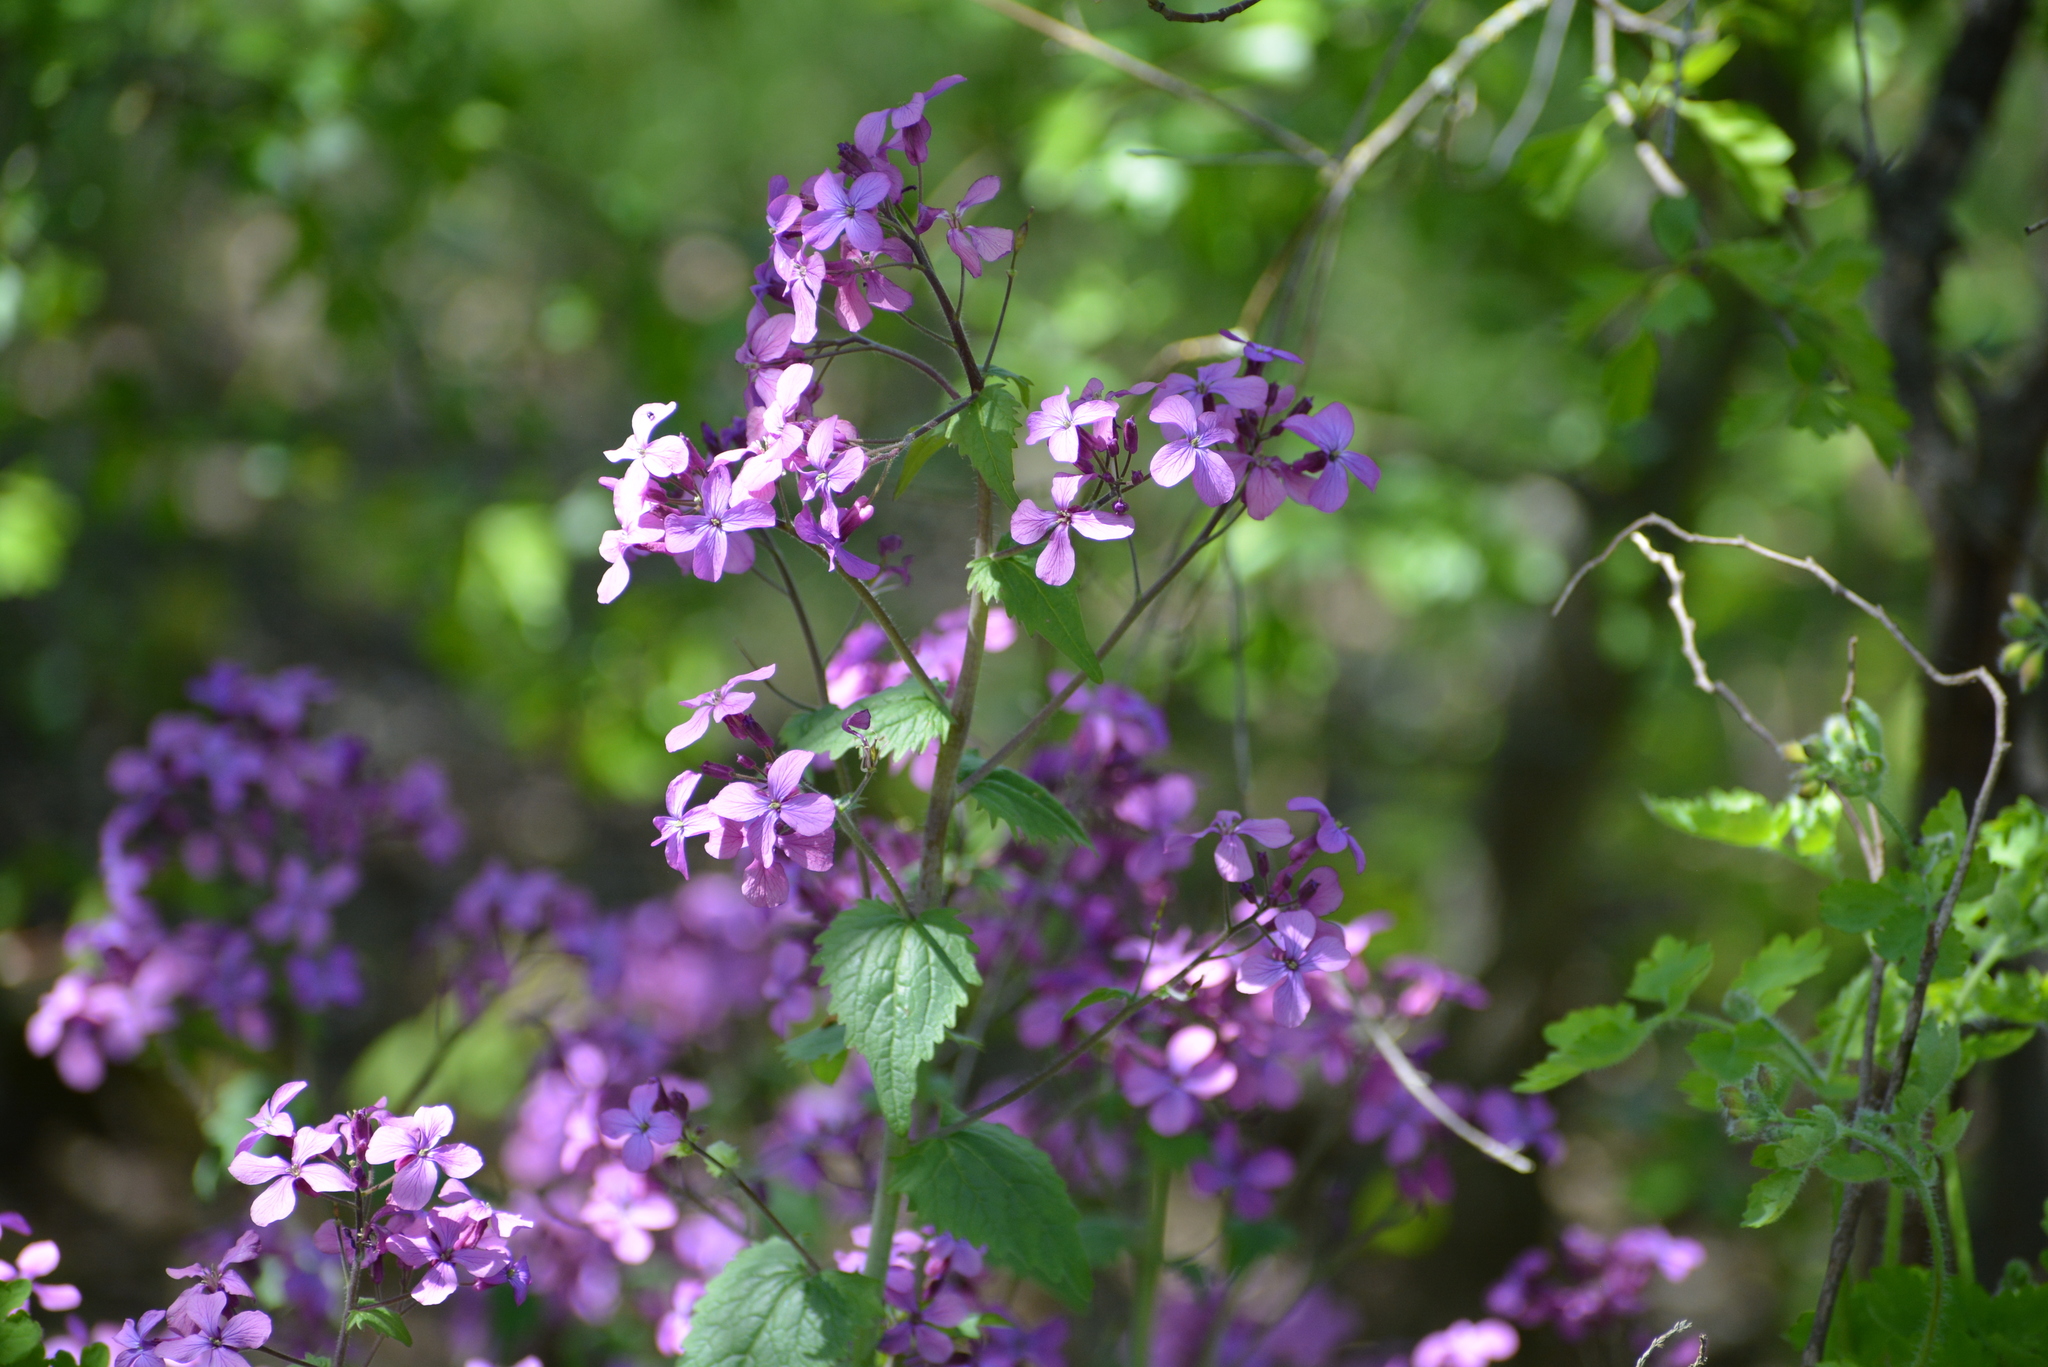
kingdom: Plantae
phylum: Tracheophyta
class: Magnoliopsida
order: Brassicales
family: Brassicaceae
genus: Lunaria
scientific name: Lunaria annua
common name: Honesty
